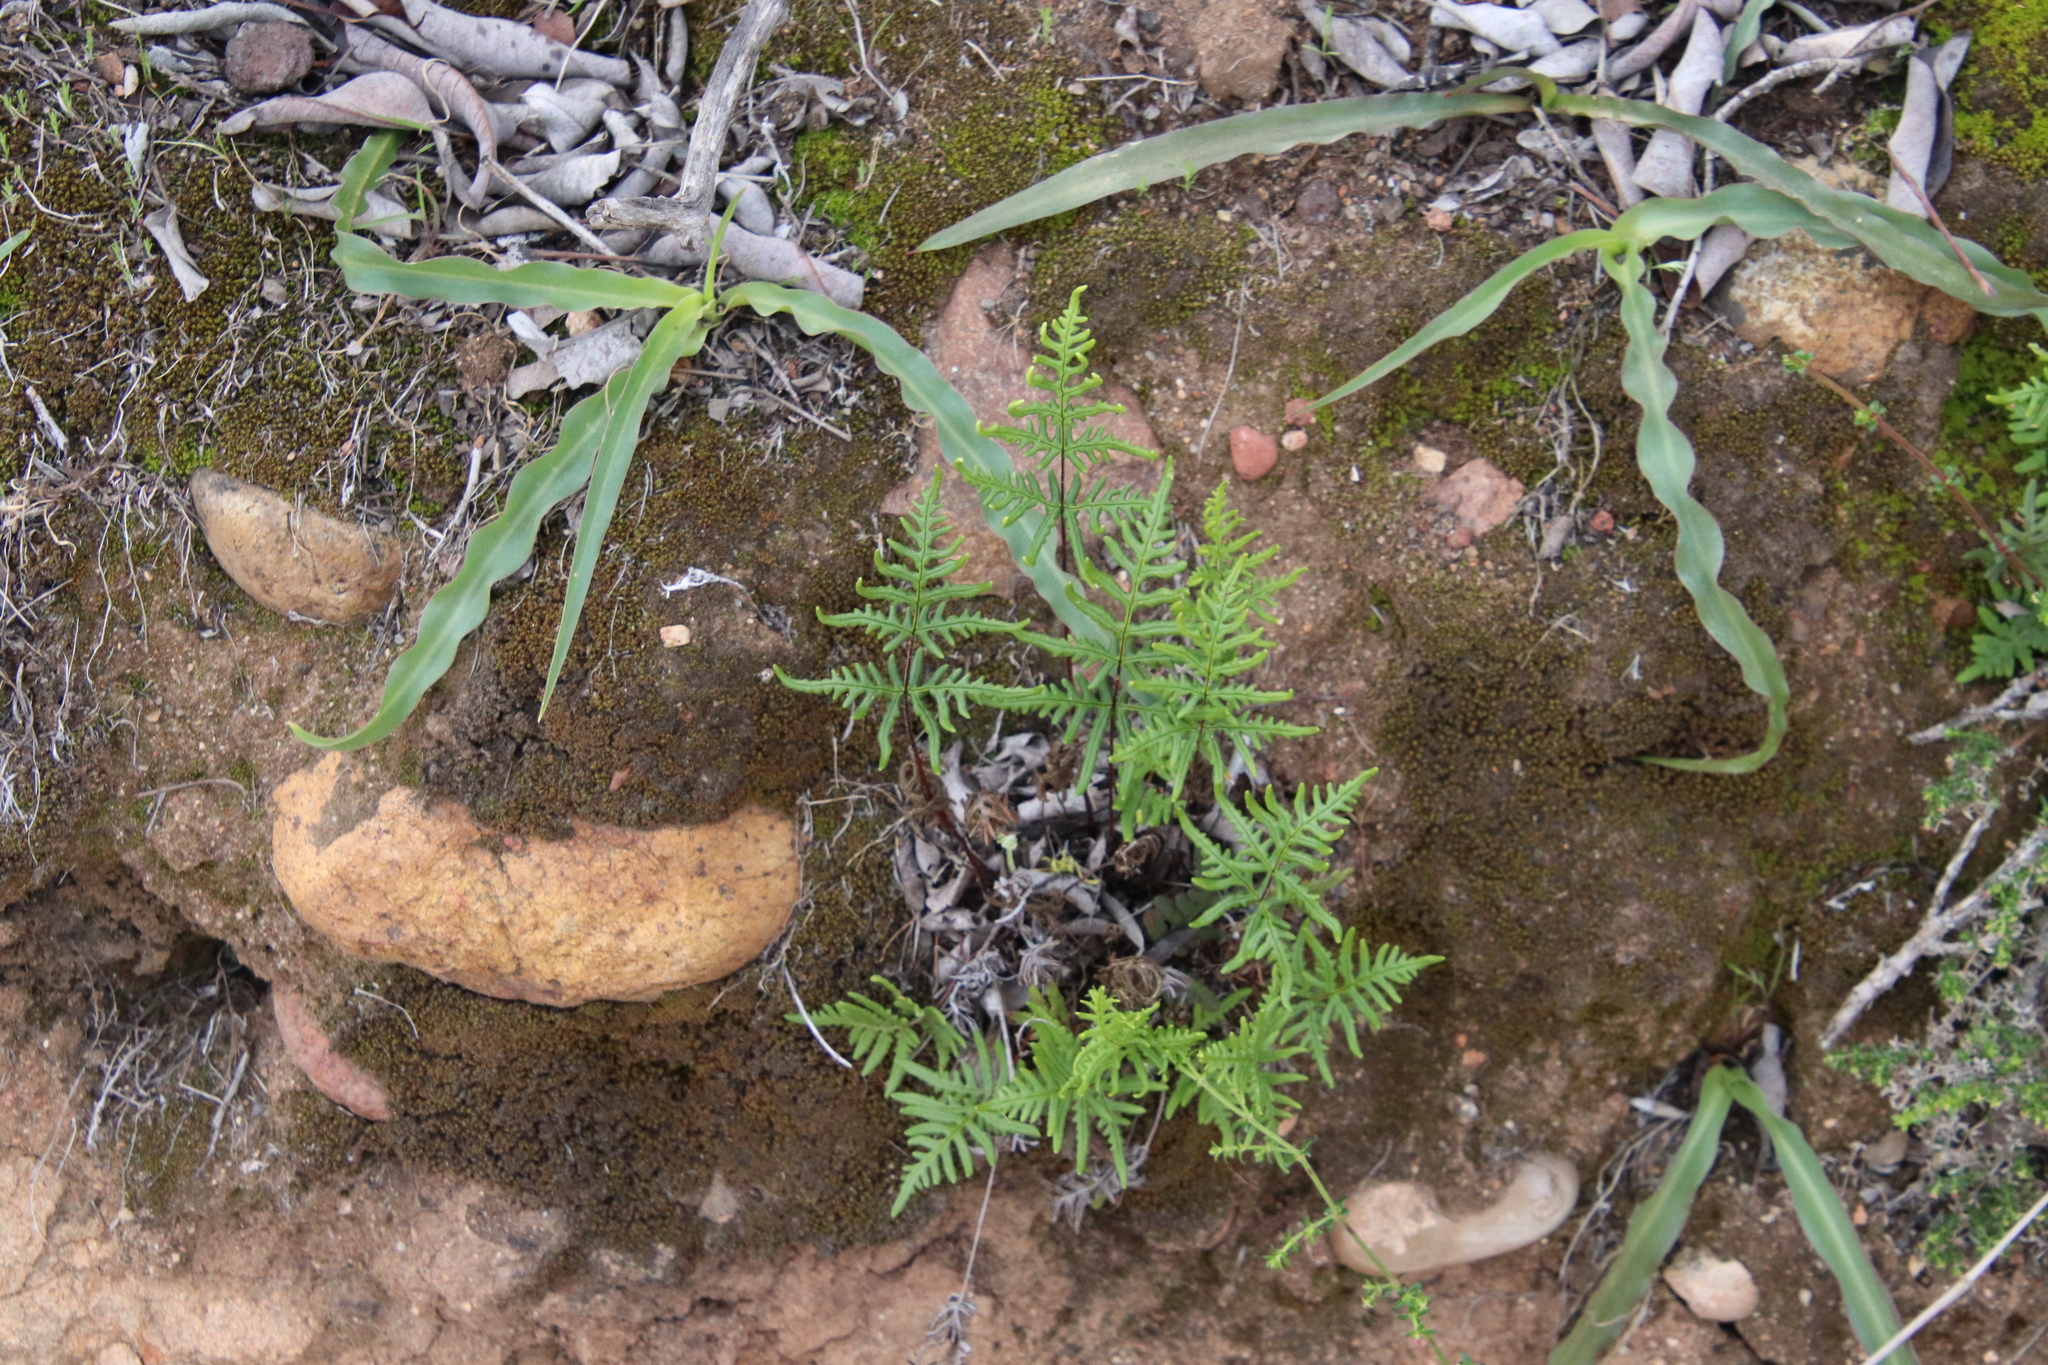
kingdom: Plantae
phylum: Tracheophyta
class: Polypodiopsida
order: Polypodiales
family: Pteridaceae
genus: Pentagramma
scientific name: Pentagramma viscosa
